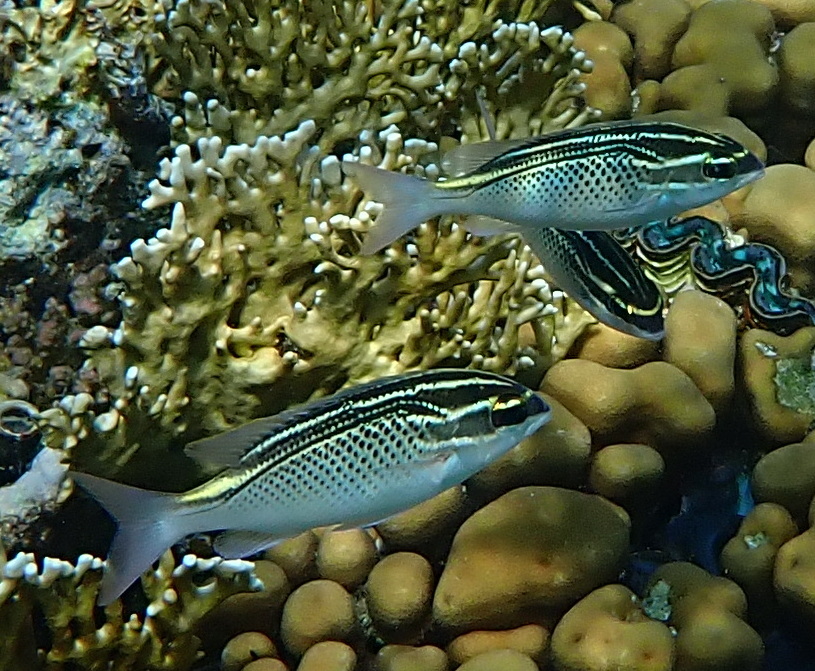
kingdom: Animalia
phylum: Chordata
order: Perciformes
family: Nemipteridae
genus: Scolopsis
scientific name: Scolopsis ghanam
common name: Arabian monocle bream
